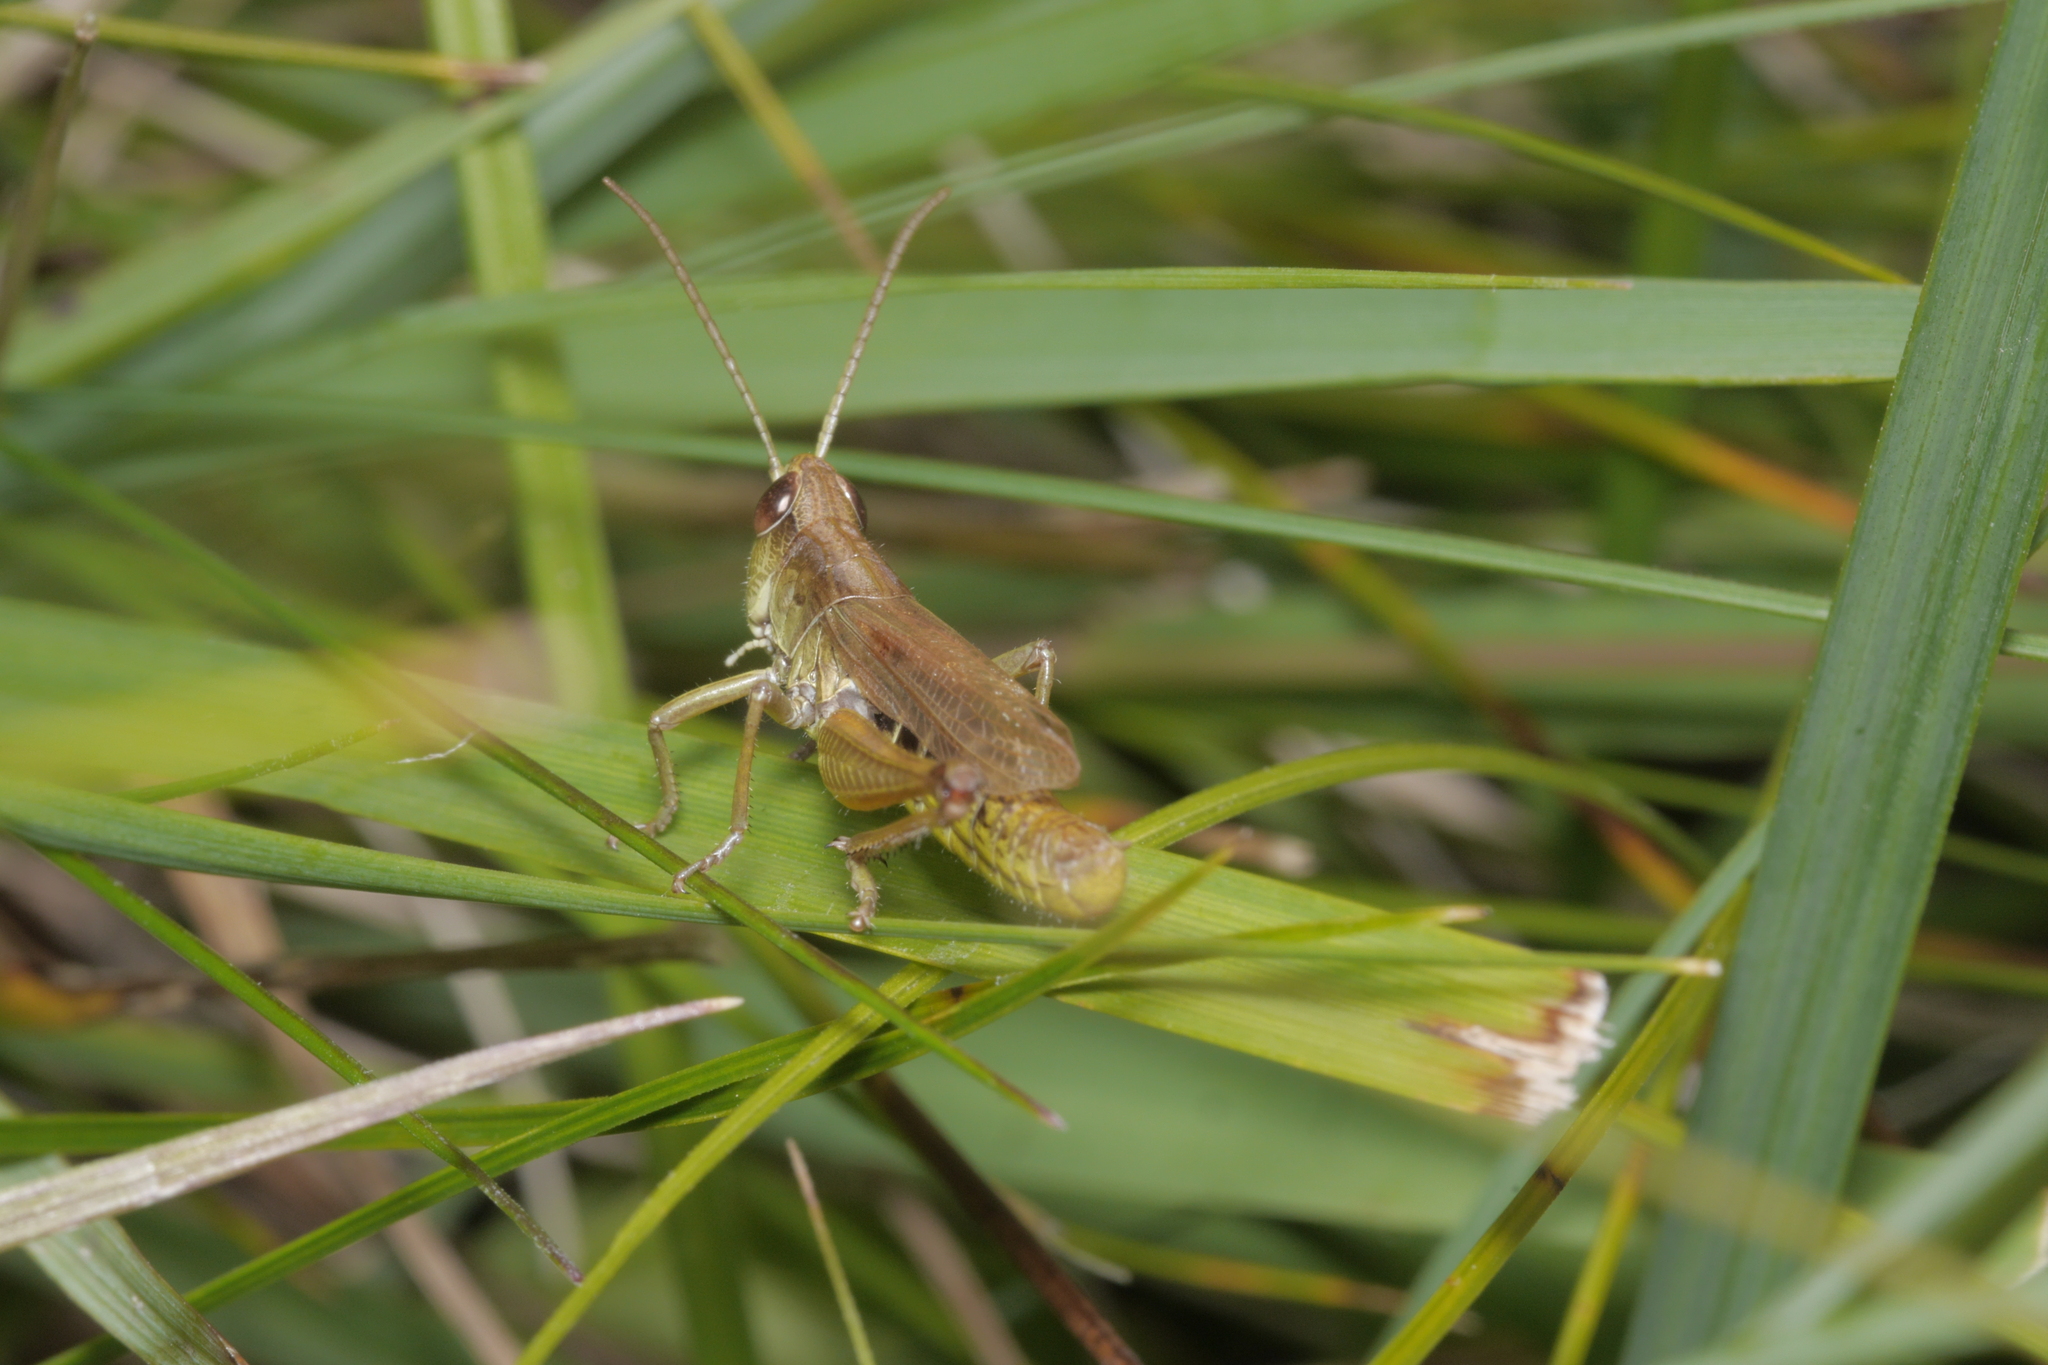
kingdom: Animalia
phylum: Arthropoda
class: Insecta
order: Orthoptera
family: Acrididae
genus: Pseudochorthippus
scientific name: Pseudochorthippus parallelus
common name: Meadow grasshopper
